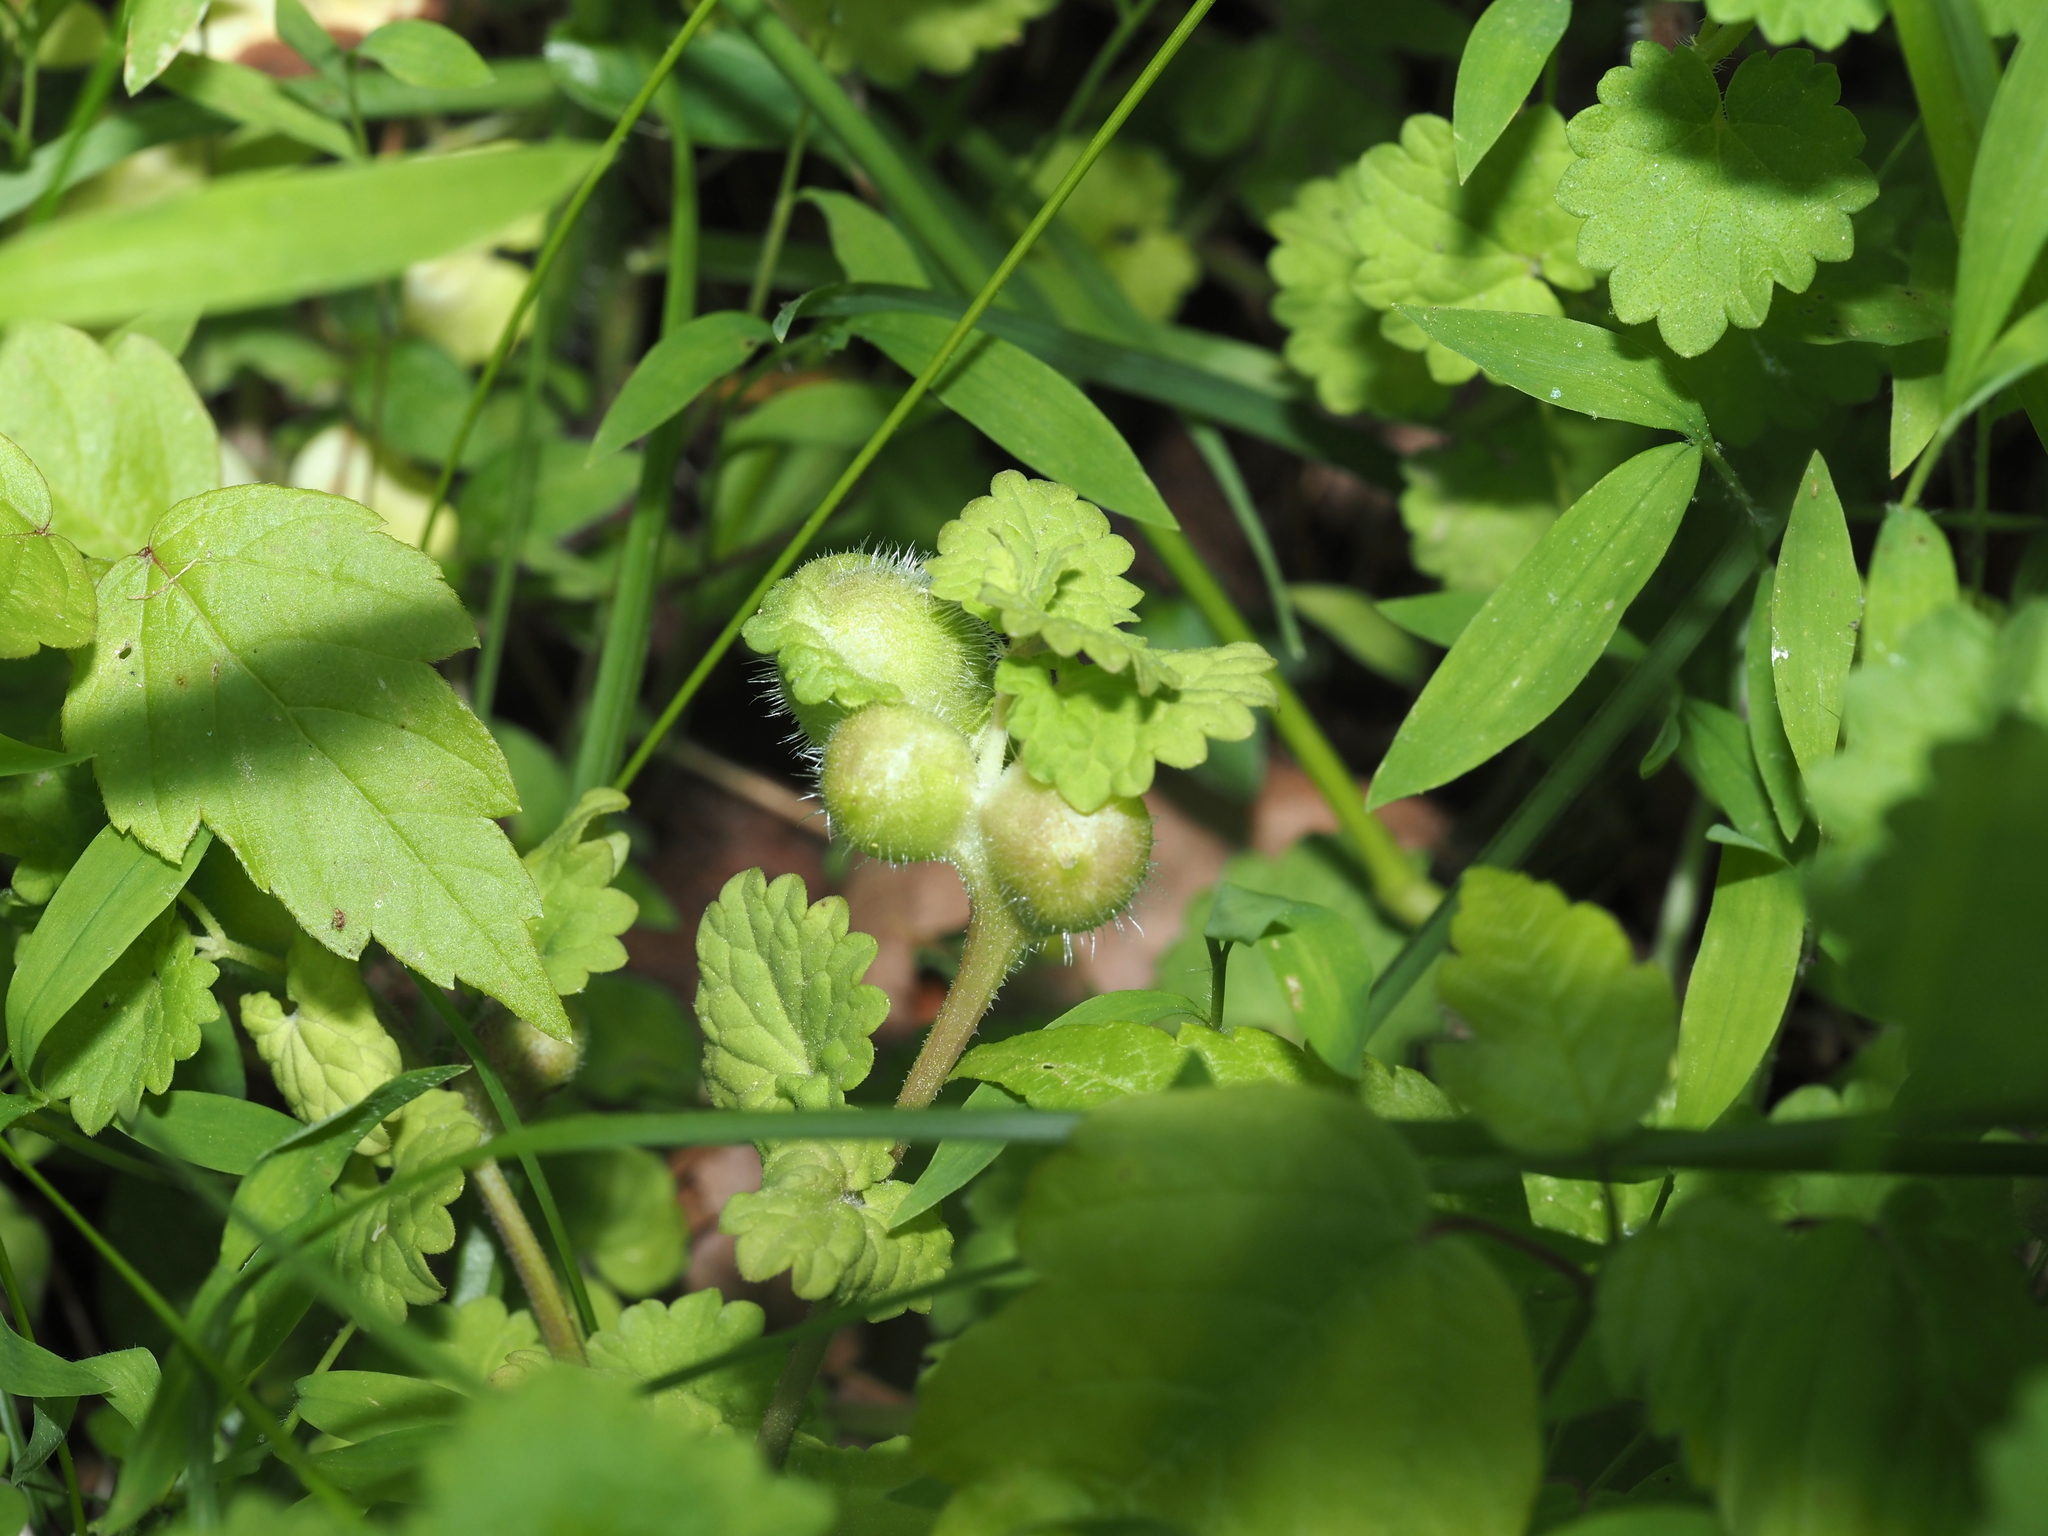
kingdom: Animalia
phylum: Arthropoda
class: Insecta
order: Hymenoptera
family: Cynipidae
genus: Liposthenes
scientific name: Liposthenes glechomae
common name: Gall wasp
